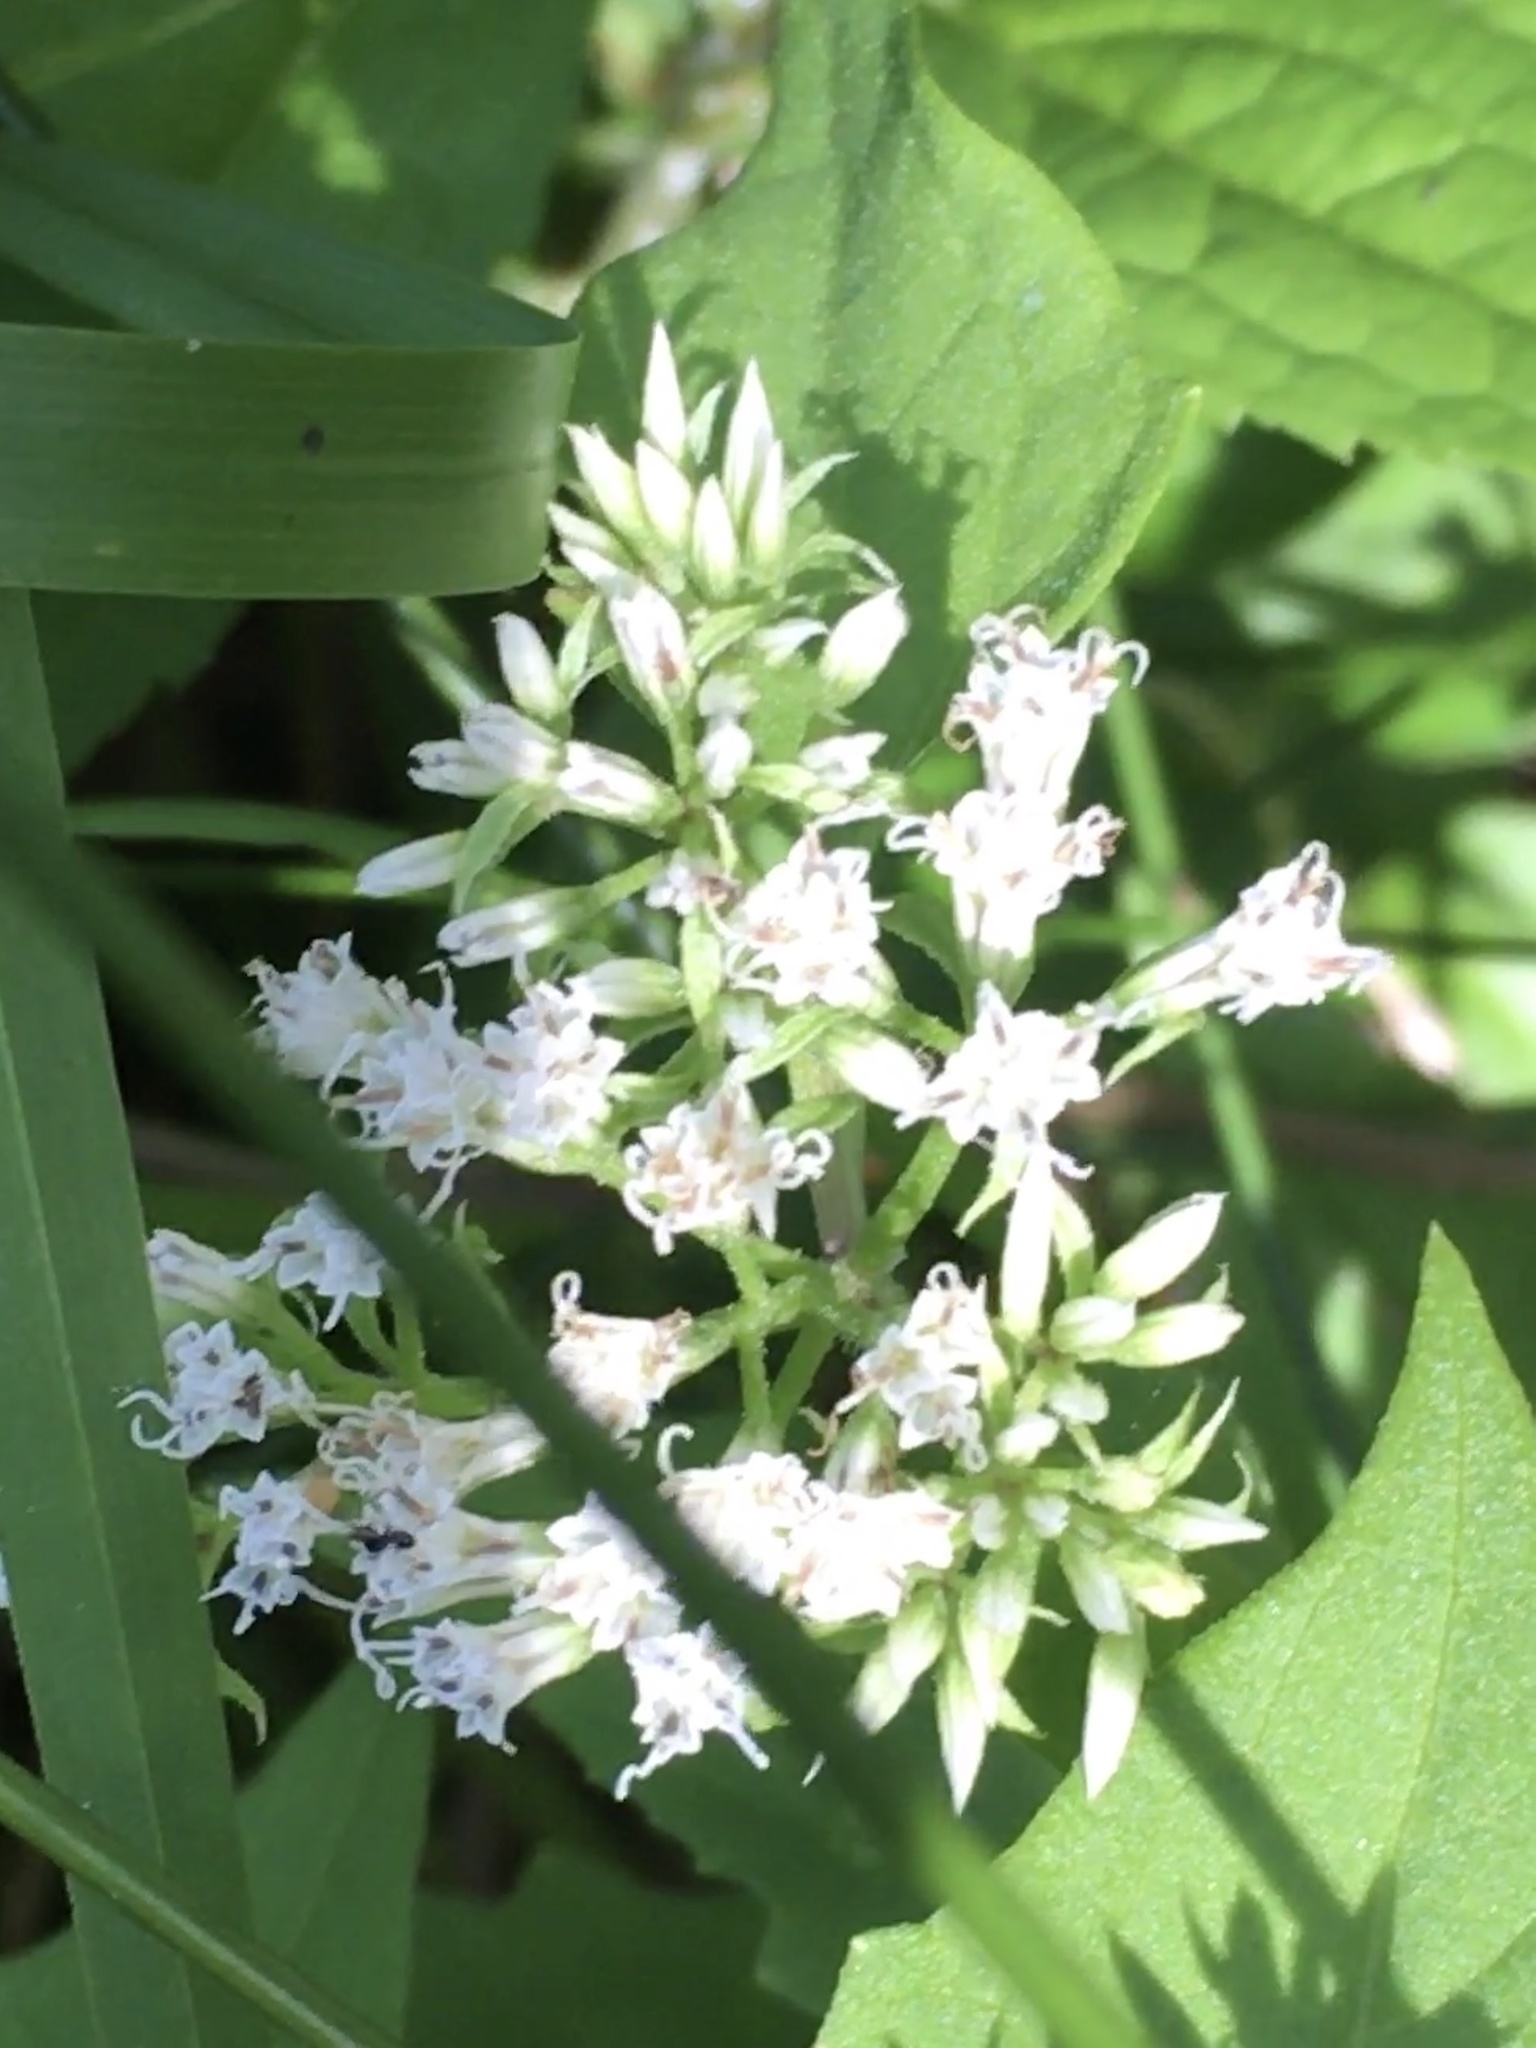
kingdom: Plantae
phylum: Tracheophyta
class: Magnoliopsida
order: Asterales
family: Asteraceae
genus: Mikania
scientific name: Mikania scandens
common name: Climbing hempvine
